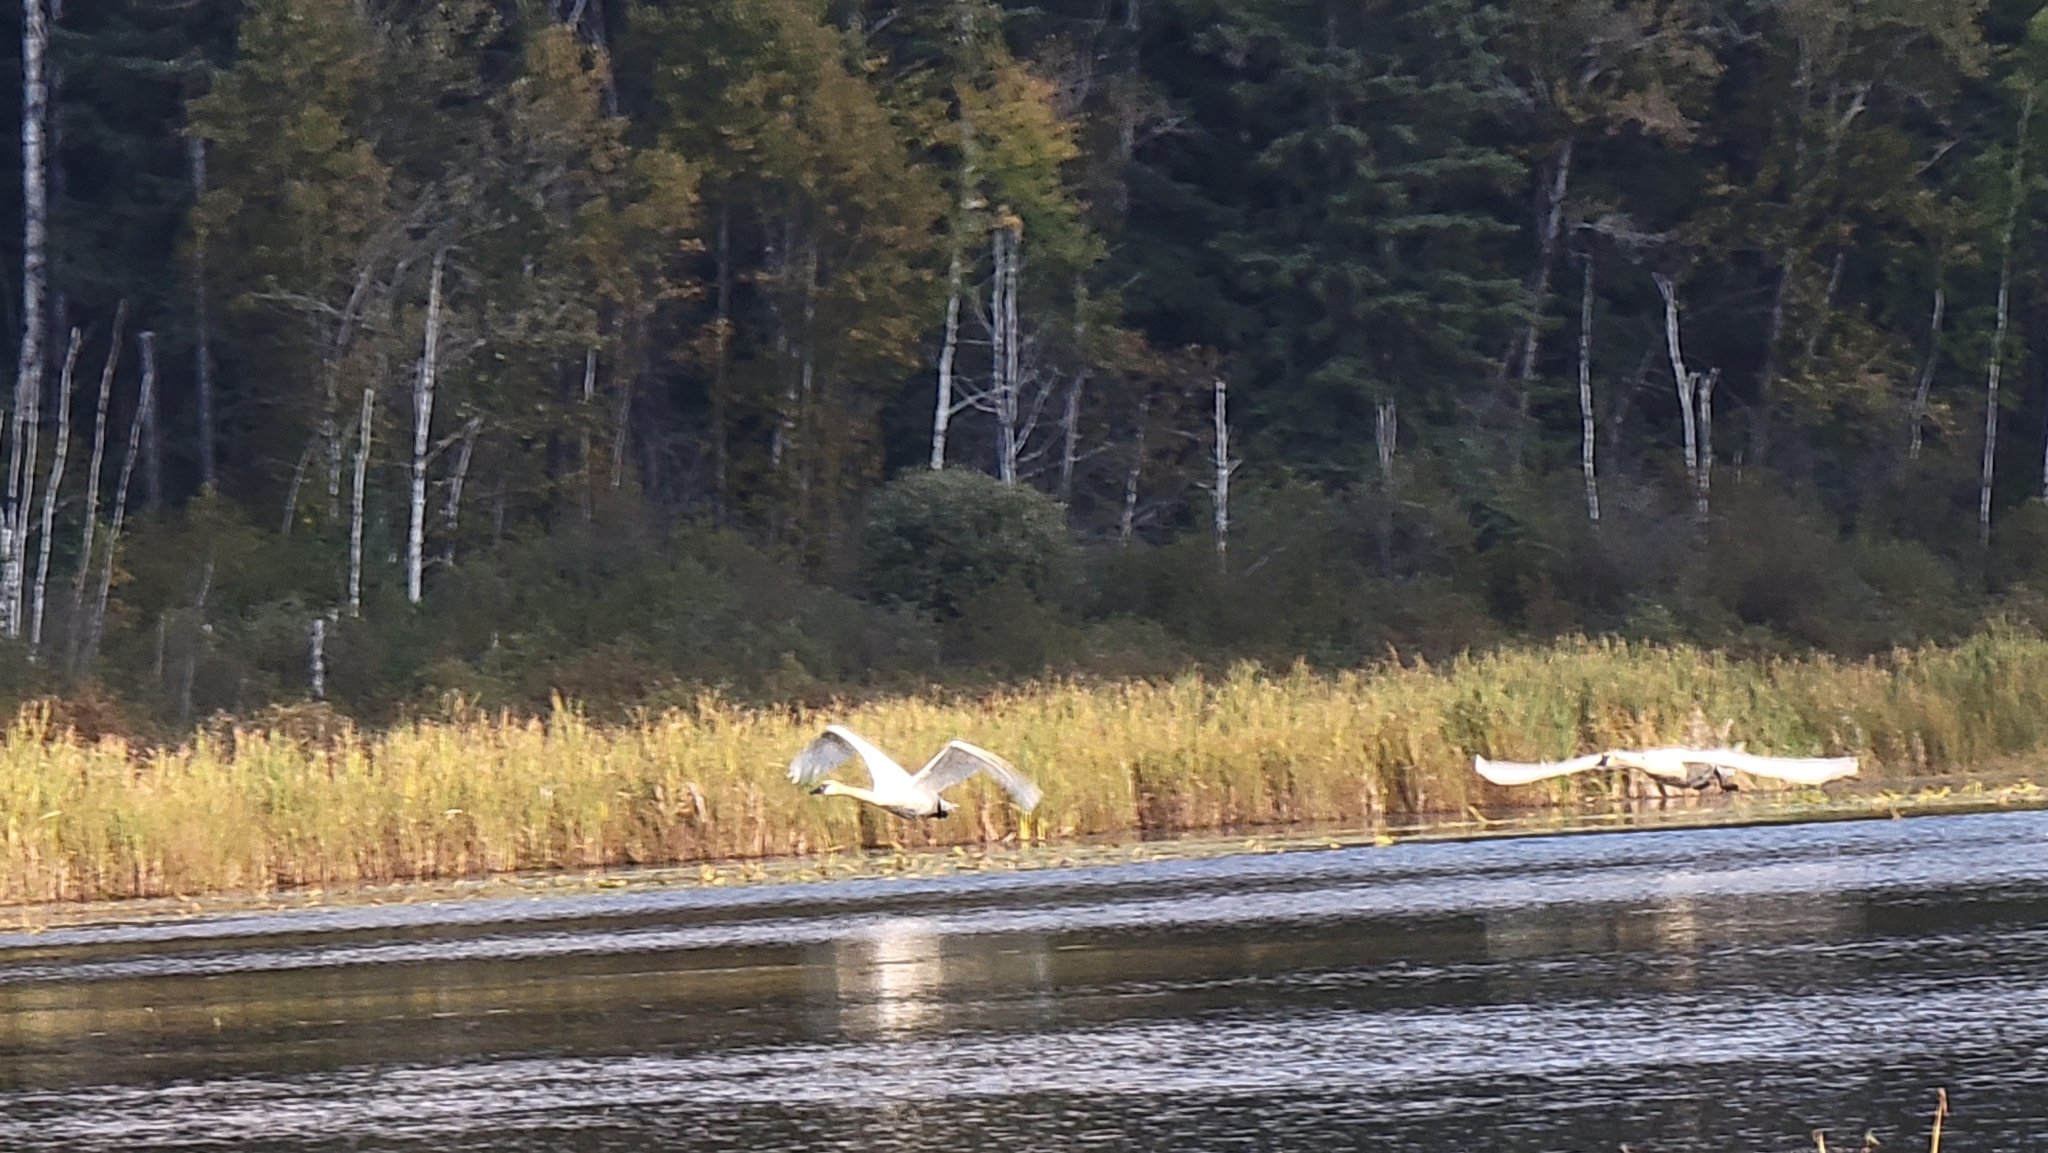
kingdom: Animalia
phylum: Chordata
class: Aves
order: Anseriformes
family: Anatidae
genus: Cygnus
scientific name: Cygnus buccinator
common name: Trumpeter swan
